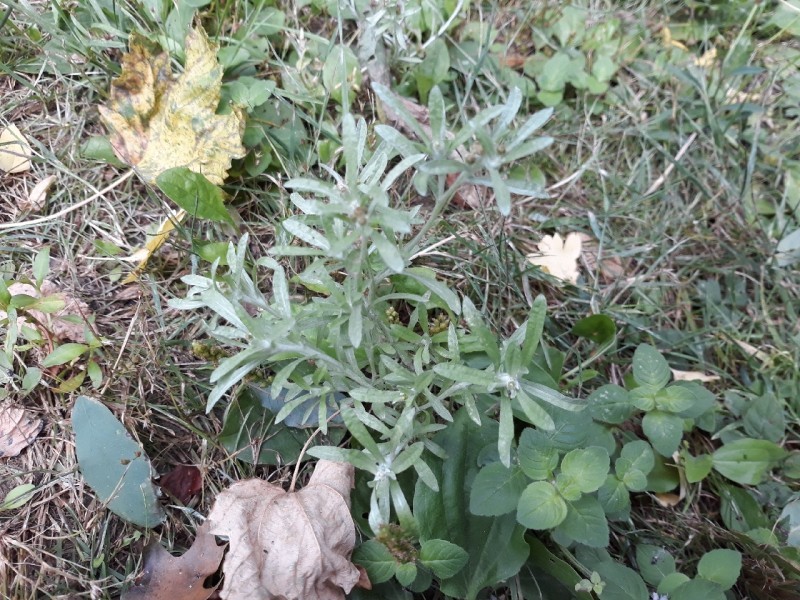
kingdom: Plantae
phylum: Tracheophyta
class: Magnoliopsida
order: Asterales
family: Asteraceae
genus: Gnaphalium
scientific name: Gnaphalium uliginosum
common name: Marsh cudweed
